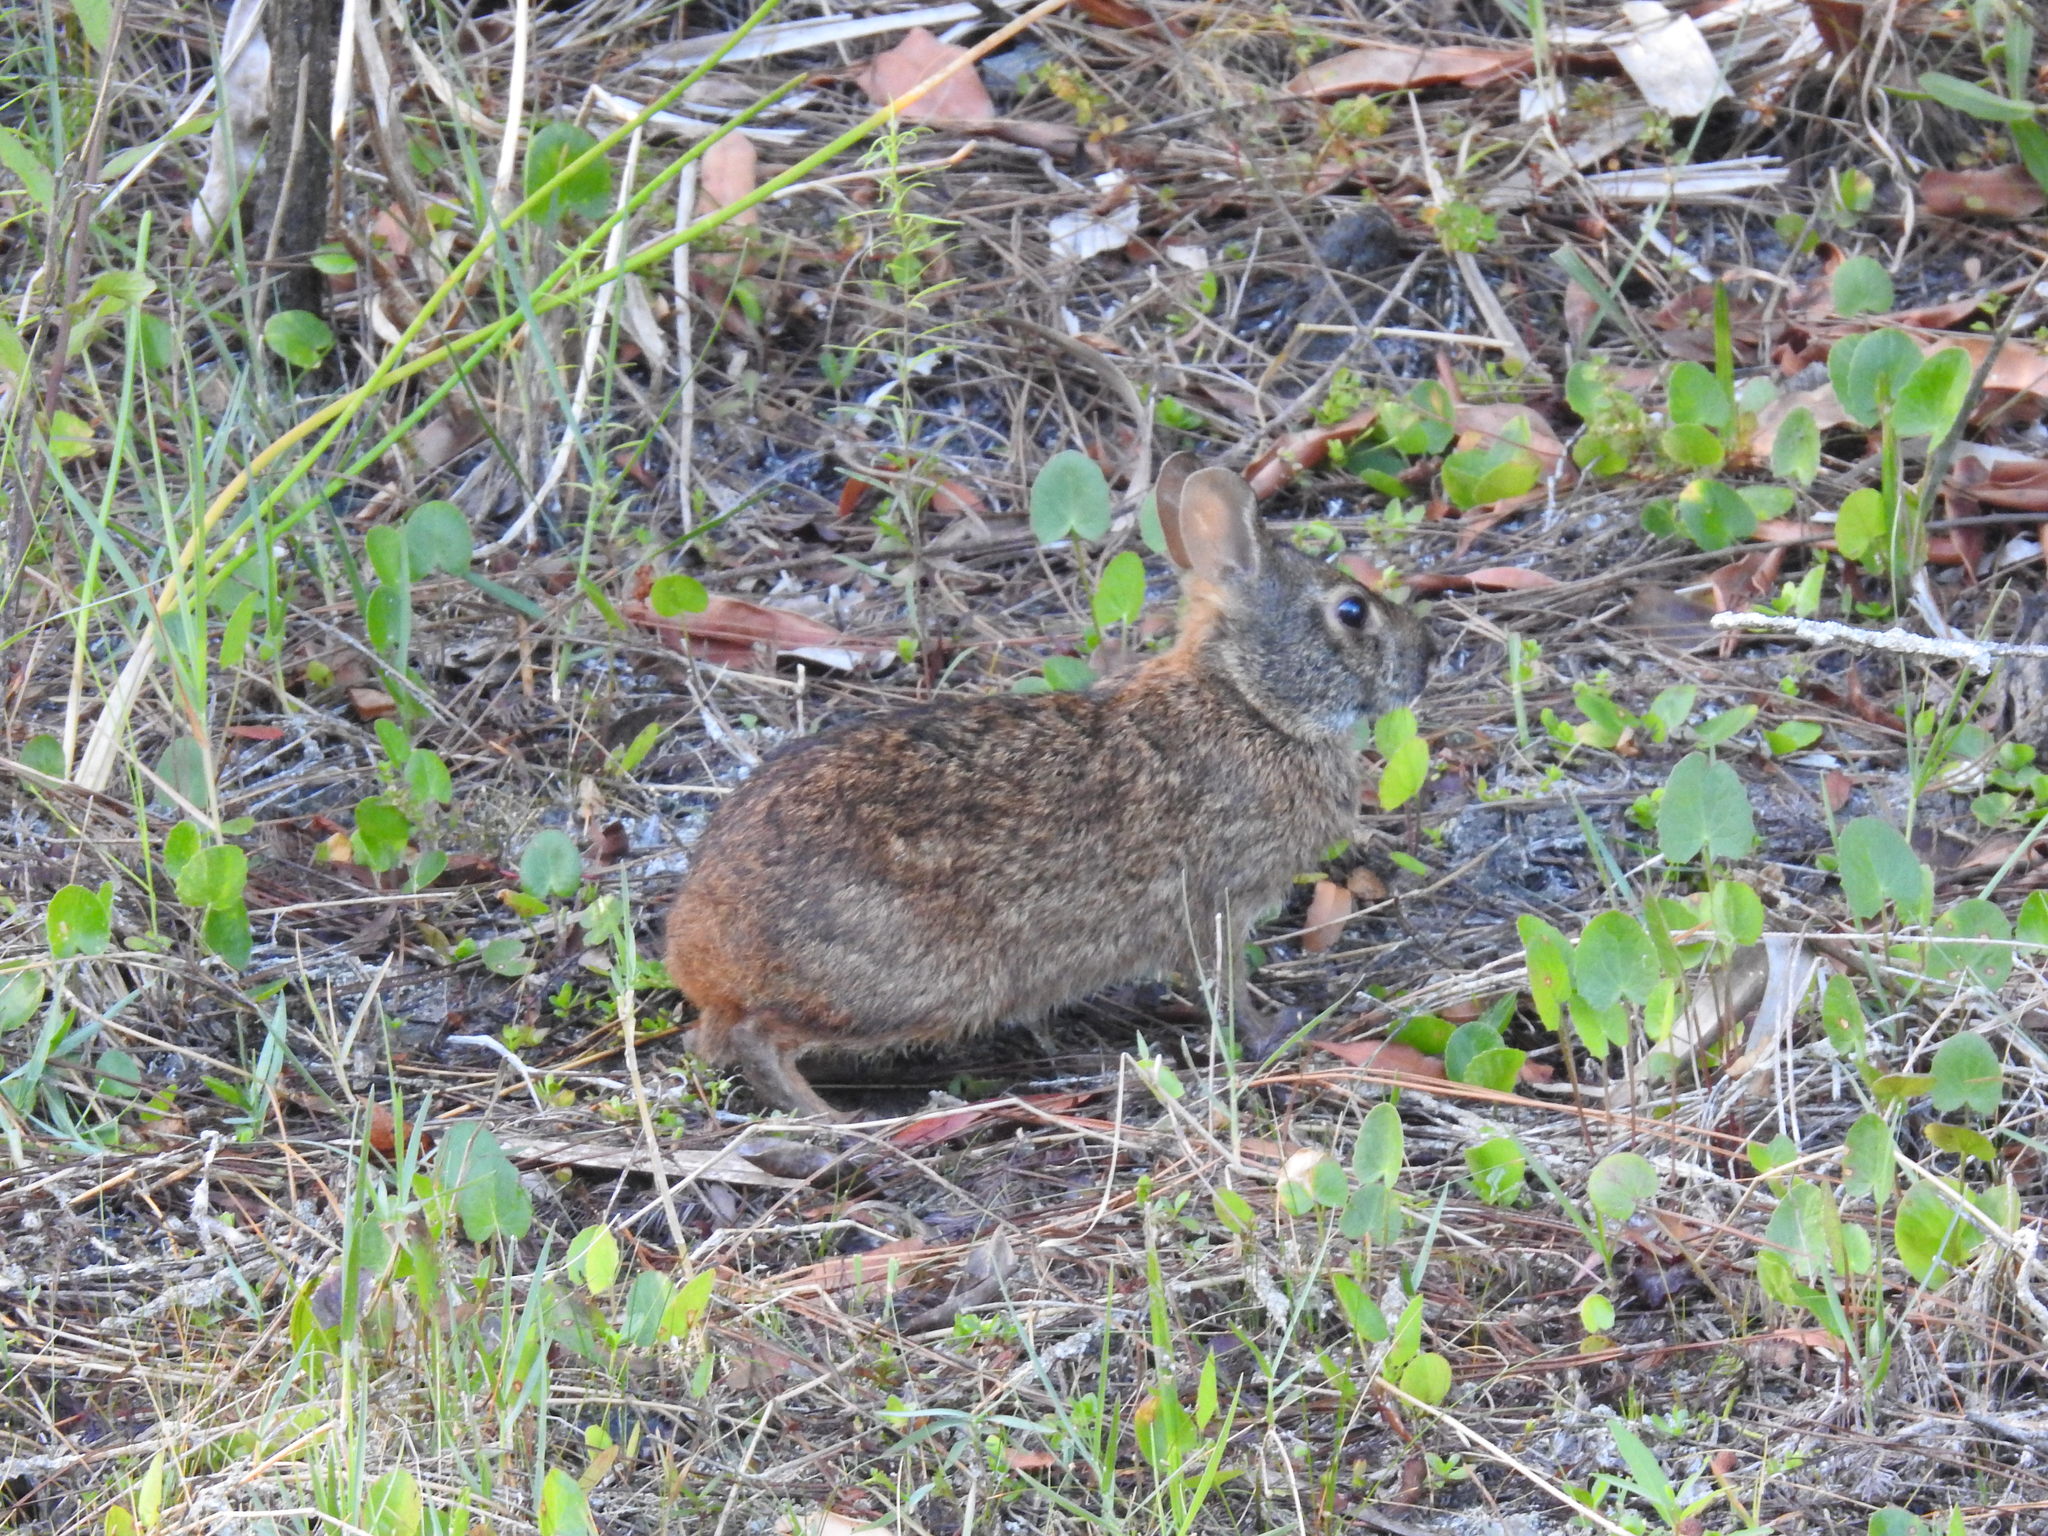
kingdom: Animalia
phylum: Chordata
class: Mammalia
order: Lagomorpha
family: Leporidae
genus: Sylvilagus
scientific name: Sylvilagus palustris
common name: Marsh rabbit
